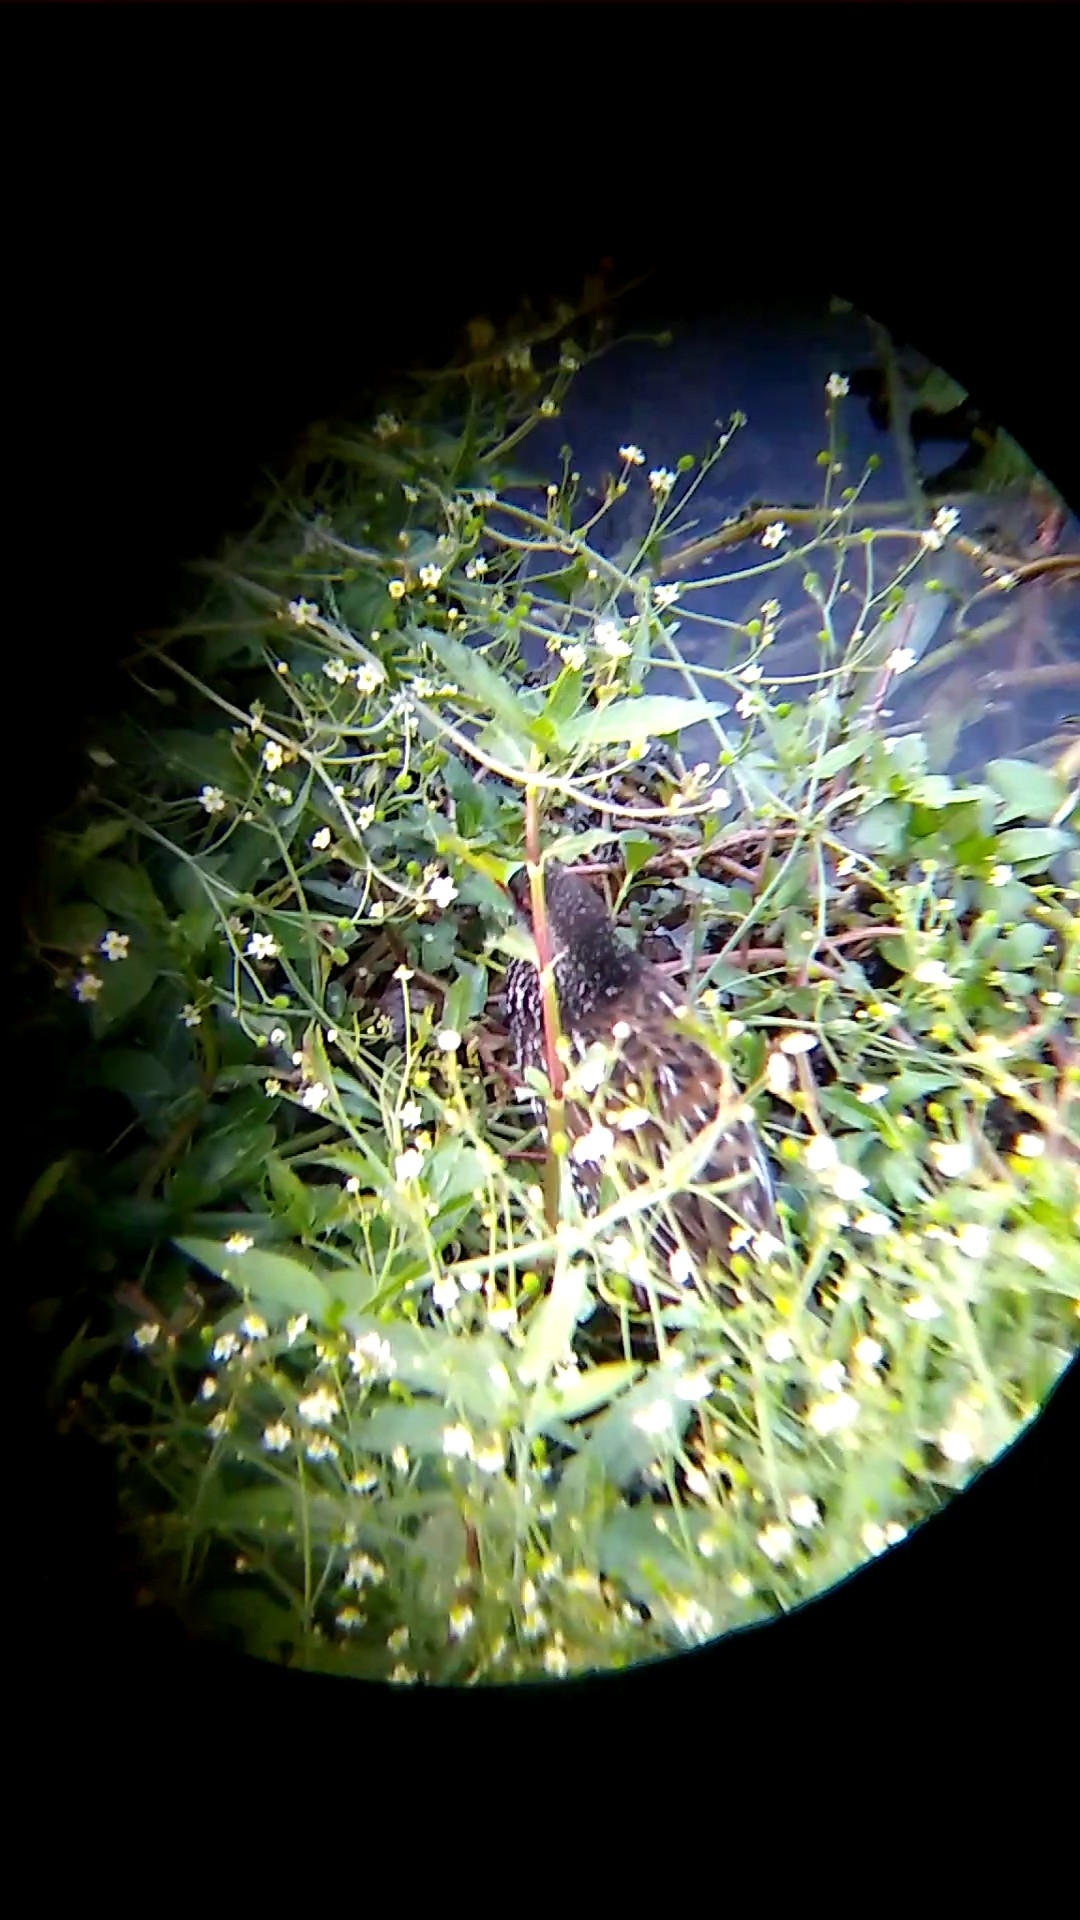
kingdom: Animalia
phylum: Chordata
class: Aves
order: Gruiformes
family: Rallidae
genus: Pardirallus
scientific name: Pardirallus maculatus
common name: Spotted rail
